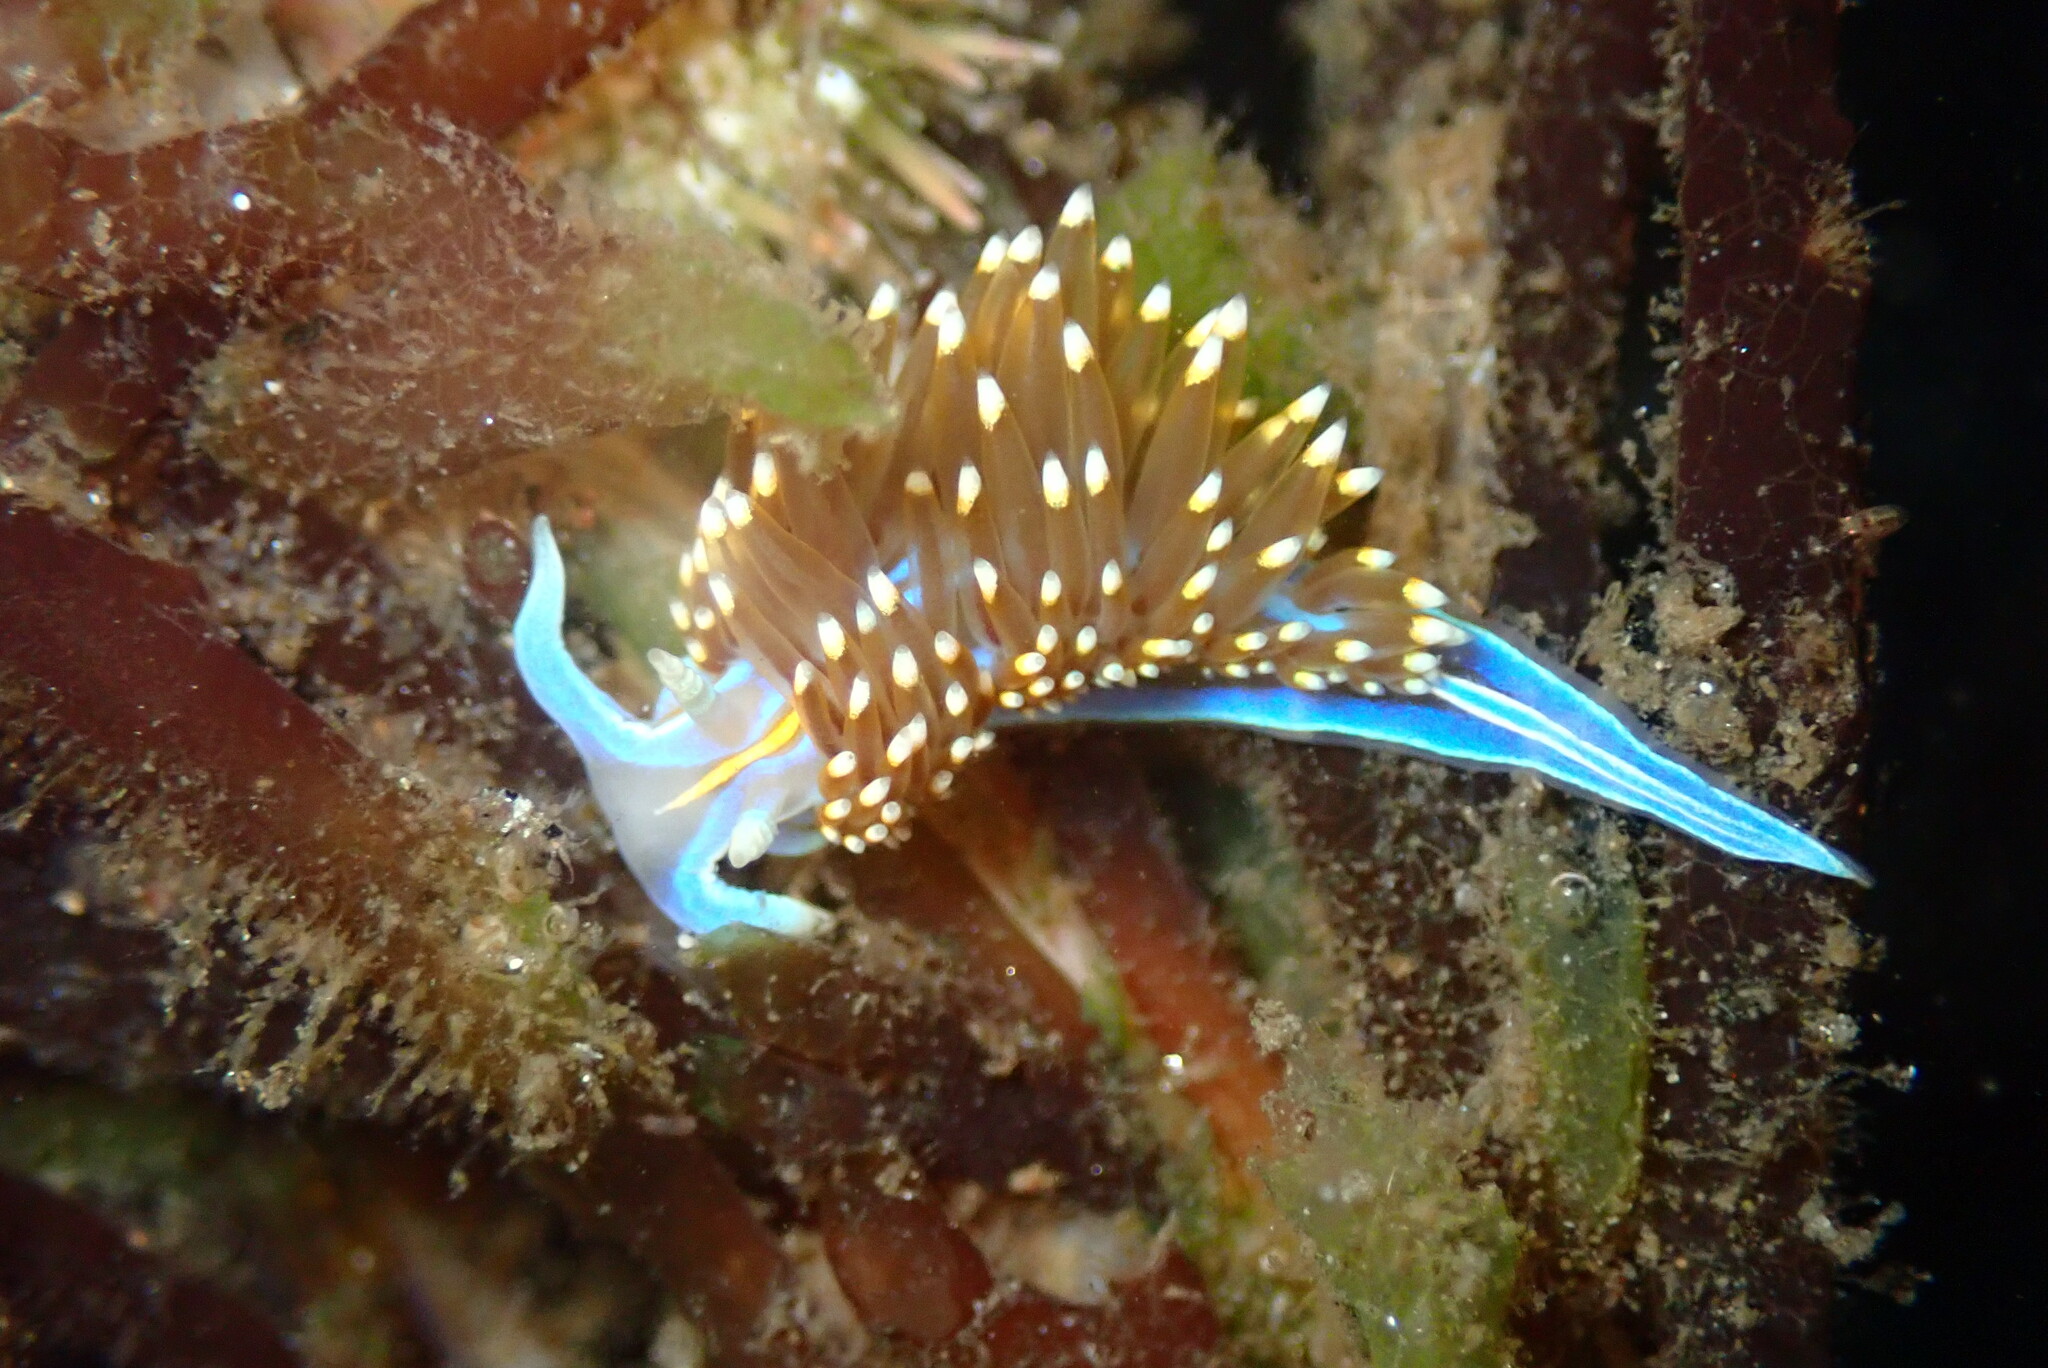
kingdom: Animalia
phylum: Mollusca
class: Gastropoda
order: Nudibranchia
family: Myrrhinidae
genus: Hermissenda
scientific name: Hermissenda opalescens
